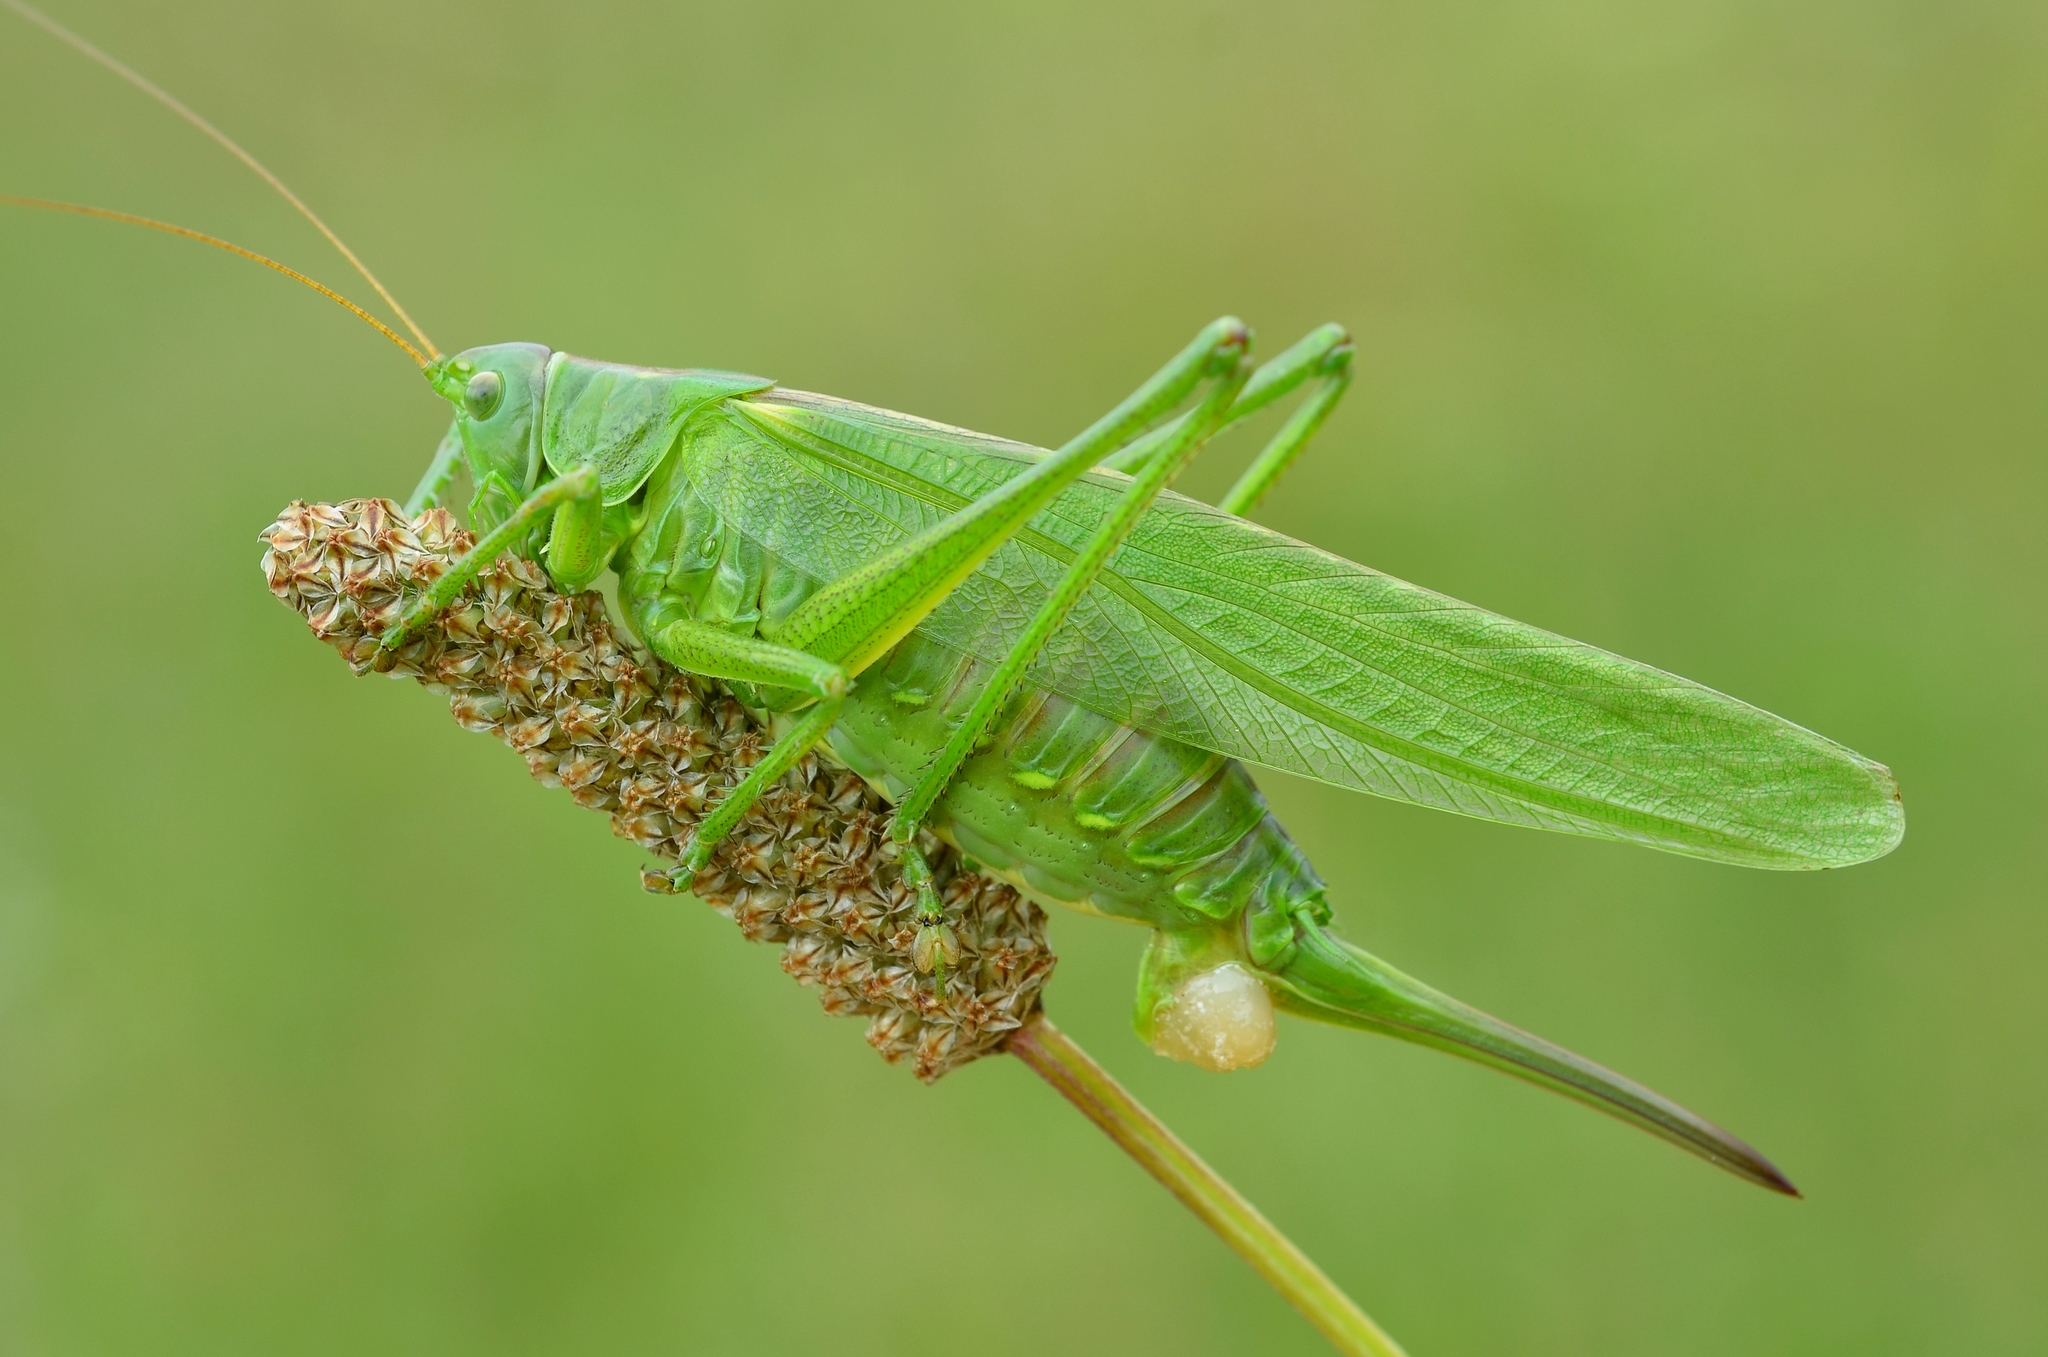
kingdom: Animalia
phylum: Arthropoda
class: Insecta
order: Orthoptera
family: Tettigoniidae
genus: Tettigonia
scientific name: Tettigonia viridissima
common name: Great green bush-cricket
